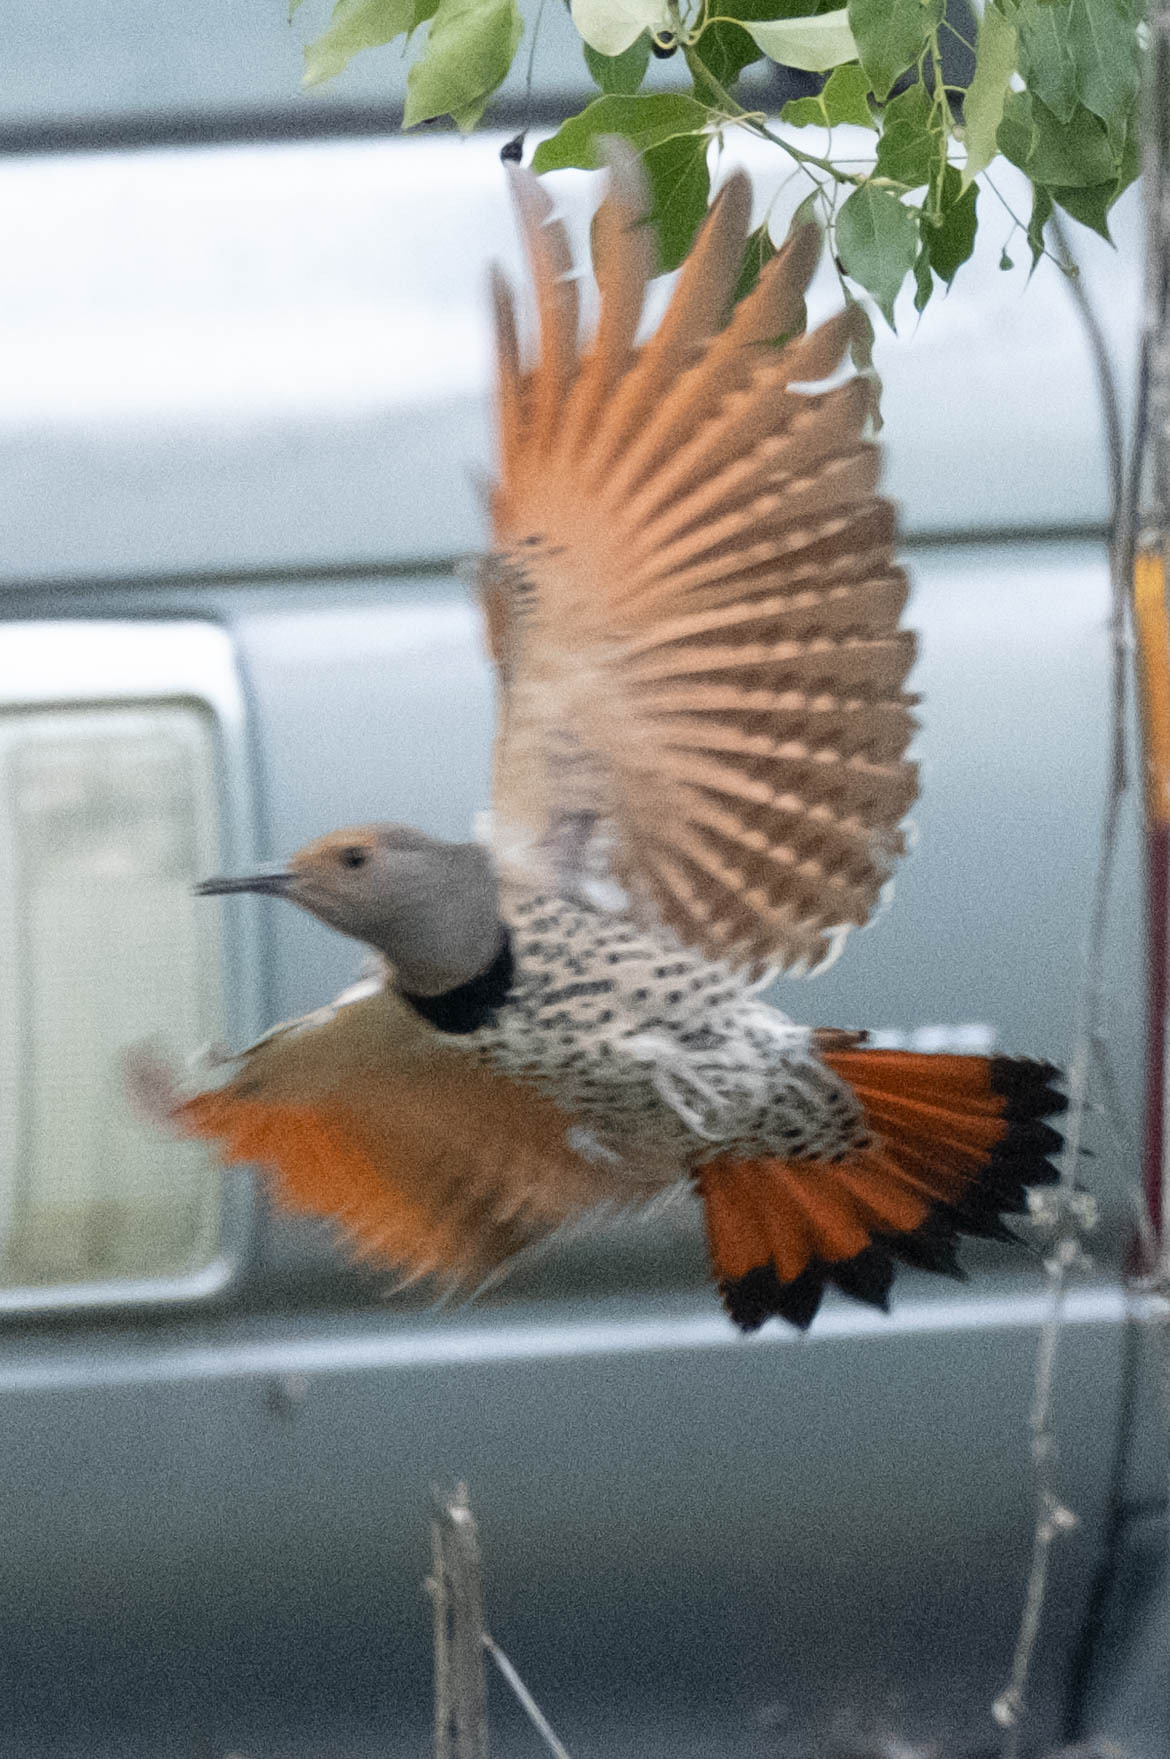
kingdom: Animalia
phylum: Chordata
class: Aves
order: Piciformes
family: Picidae
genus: Colaptes
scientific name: Colaptes auratus
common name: Northern flicker
